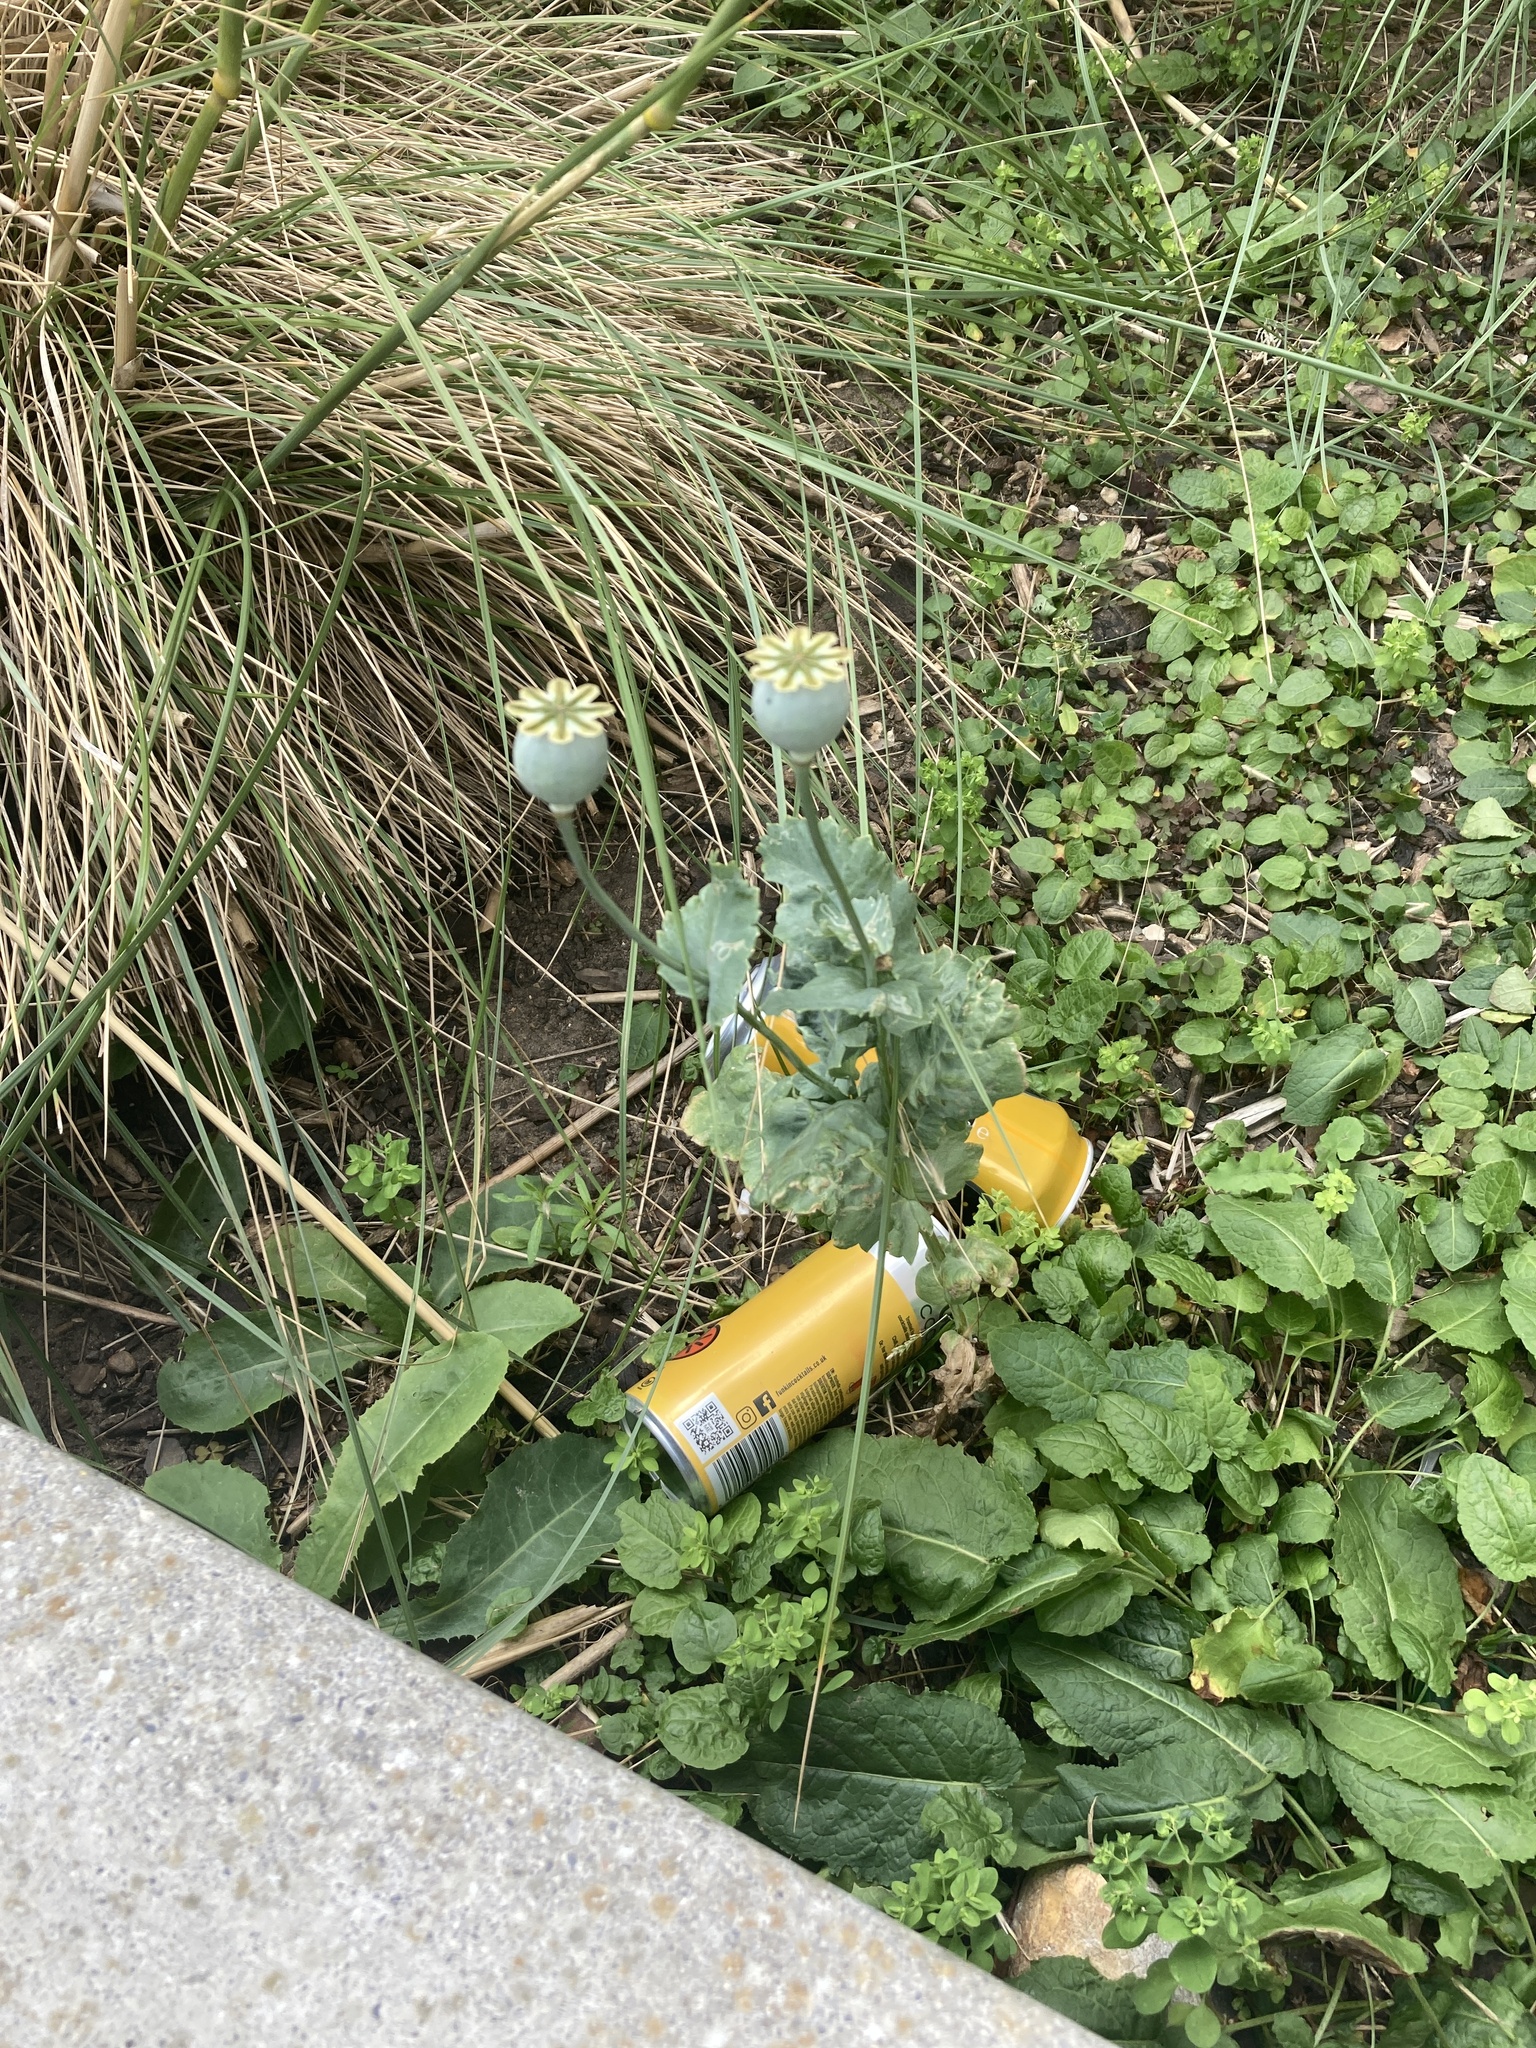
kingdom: Plantae
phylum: Tracheophyta
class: Magnoliopsida
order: Ranunculales
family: Papaveraceae
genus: Papaver
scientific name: Papaver somniferum
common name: Opium poppy
